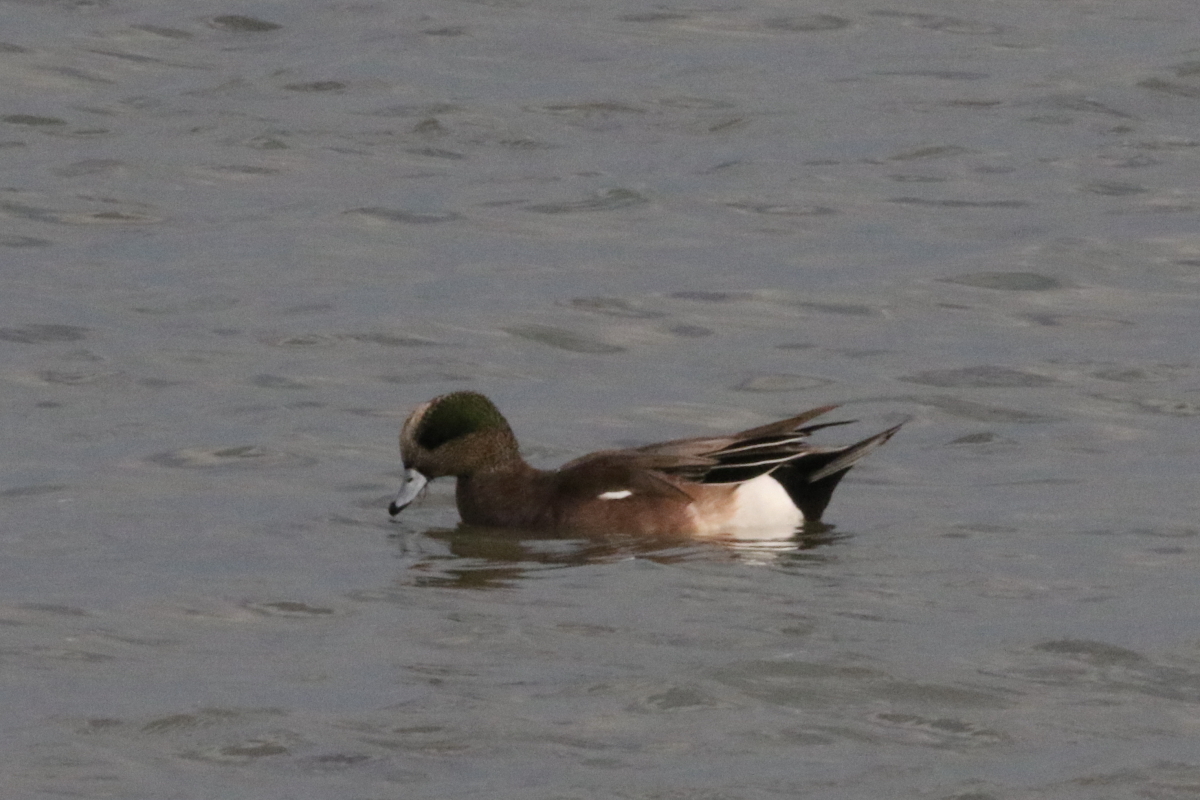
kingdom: Animalia
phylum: Chordata
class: Aves
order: Anseriformes
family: Anatidae
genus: Mareca
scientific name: Mareca americana
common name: American wigeon
